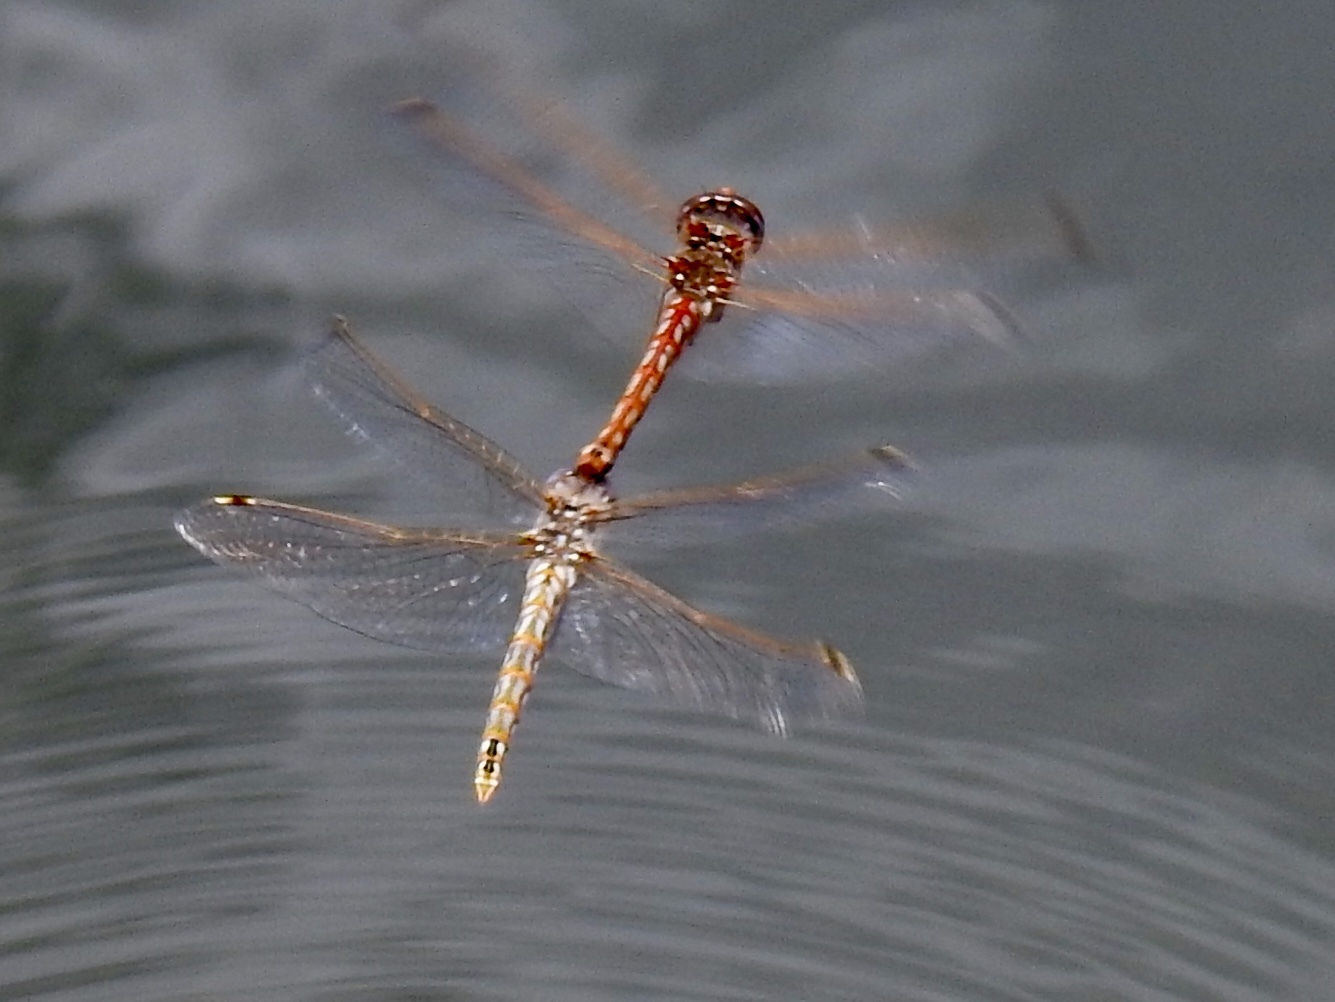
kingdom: Animalia
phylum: Arthropoda
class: Insecta
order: Odonata
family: Libellulidae
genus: Sympetrum
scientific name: Sympetrum corruptum
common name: Variegated meadowhawk
